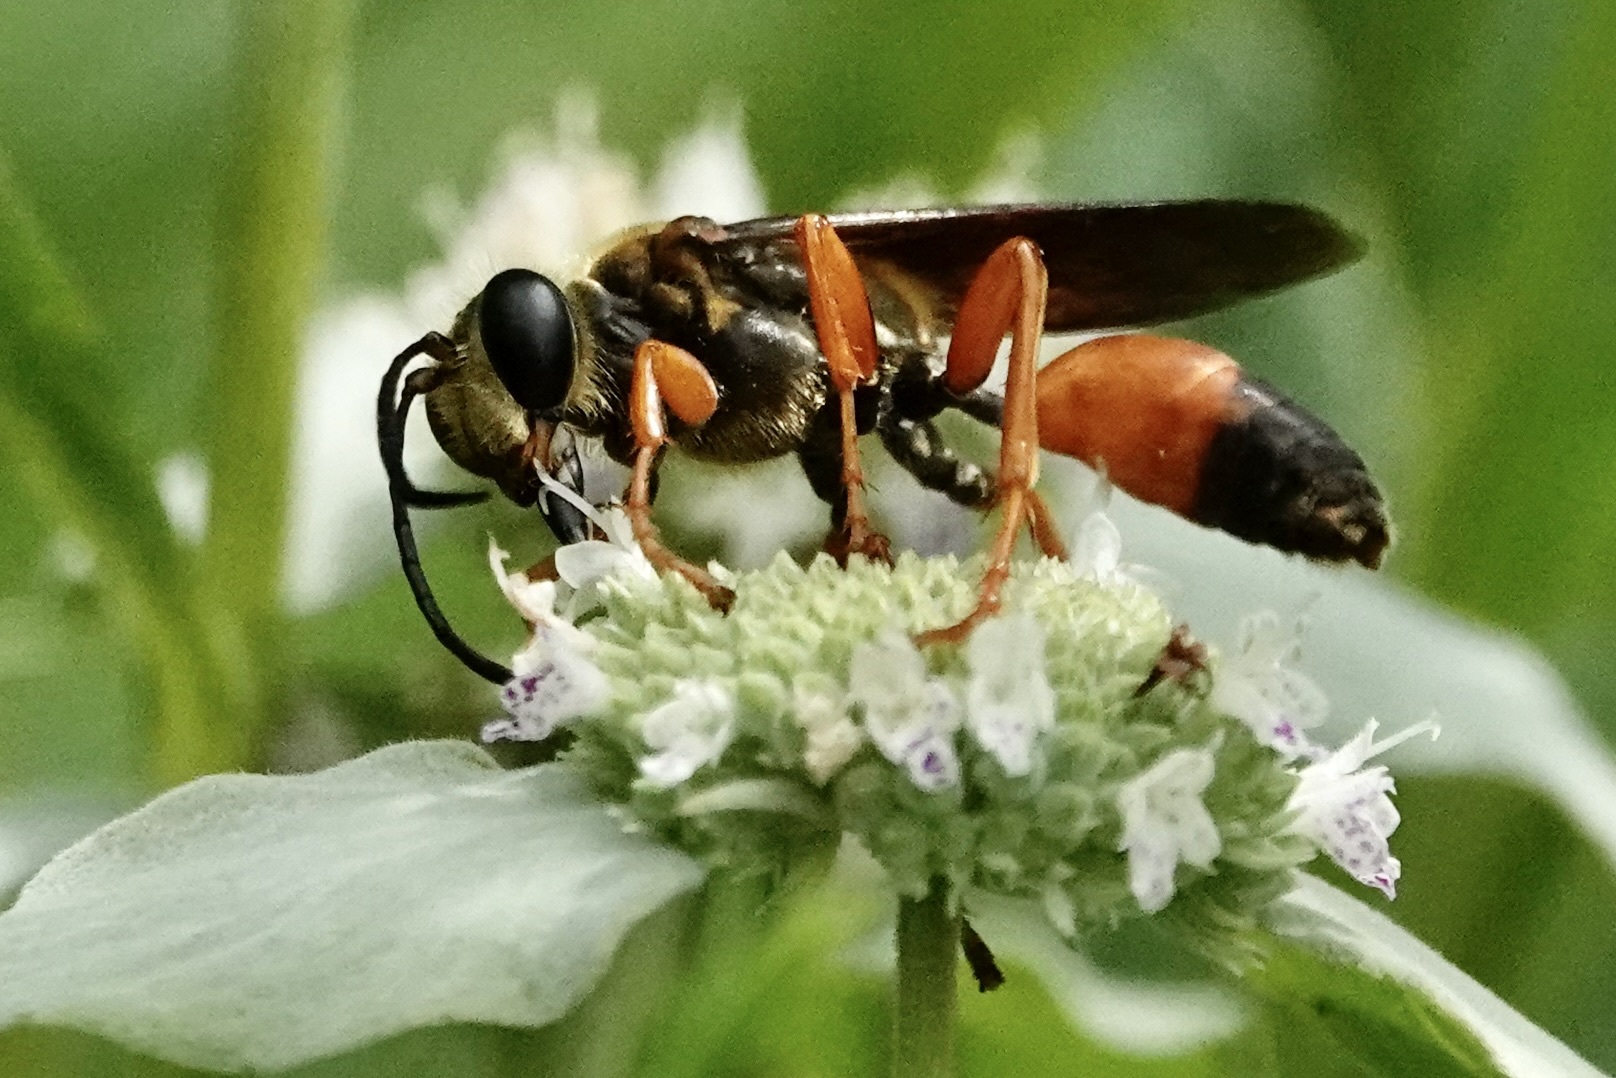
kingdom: Animalia
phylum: Arthropoda
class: Insecta
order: Hymenoptera
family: Sphecidae
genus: Sphex
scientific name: Sphex ichneumoneus
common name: Great golden digger wasp
